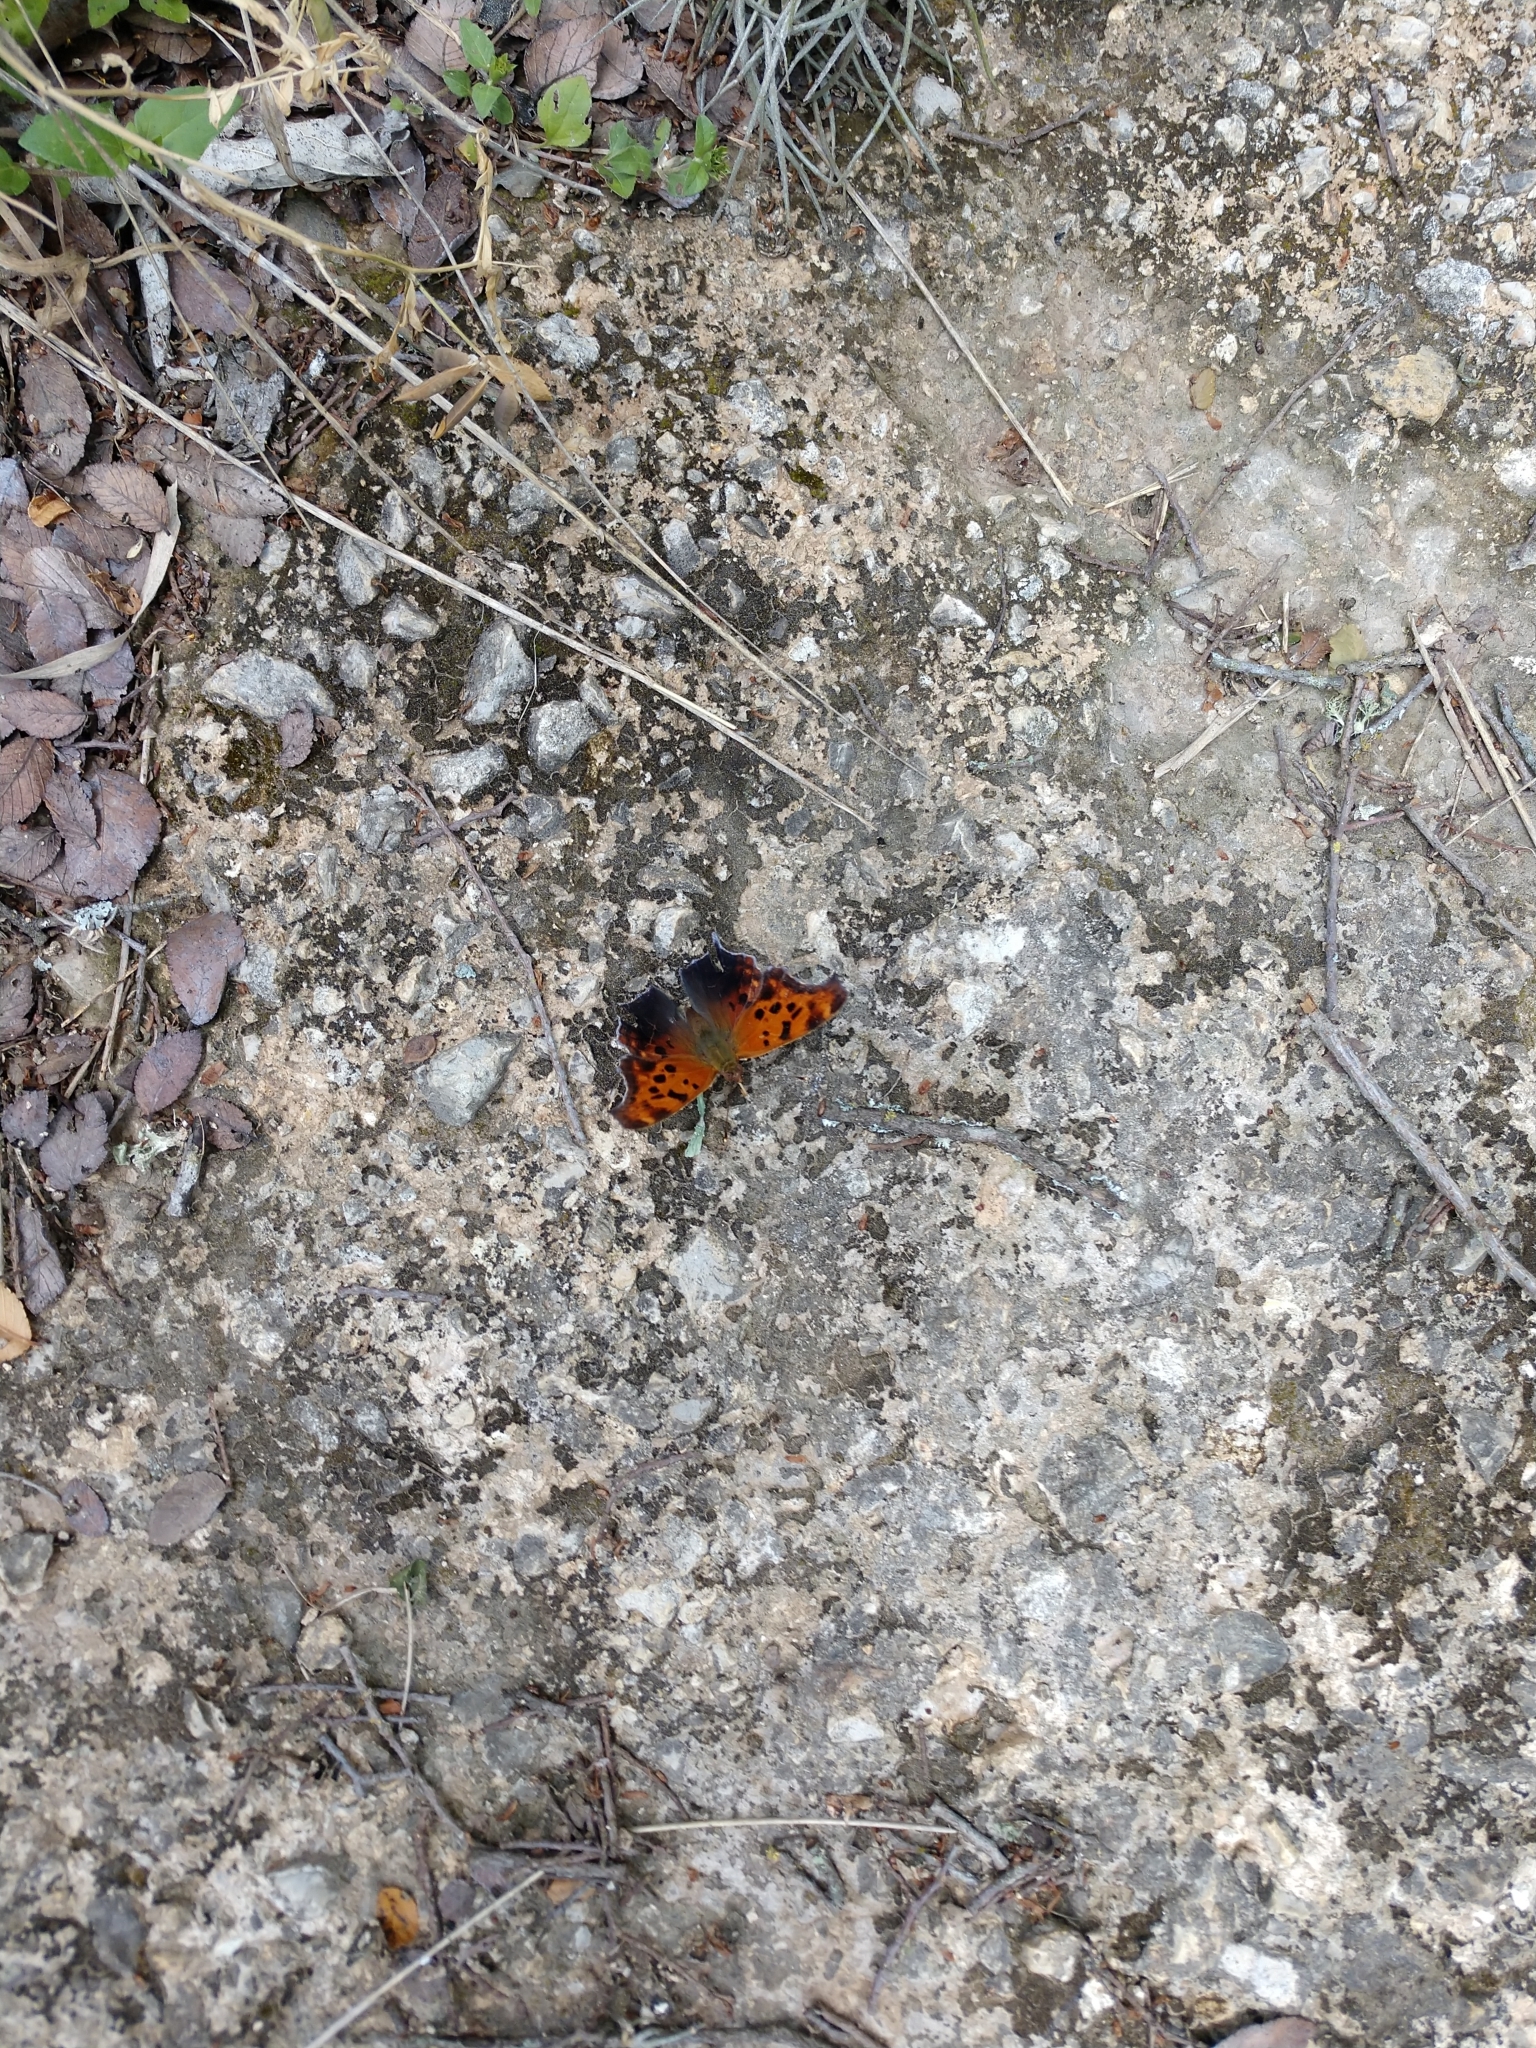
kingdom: Animalia
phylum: Arthropoda
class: Insecta
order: Lepidoptera
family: Nymphalidae
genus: Polygonia
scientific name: Polygonia interrogationis
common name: Question mark
